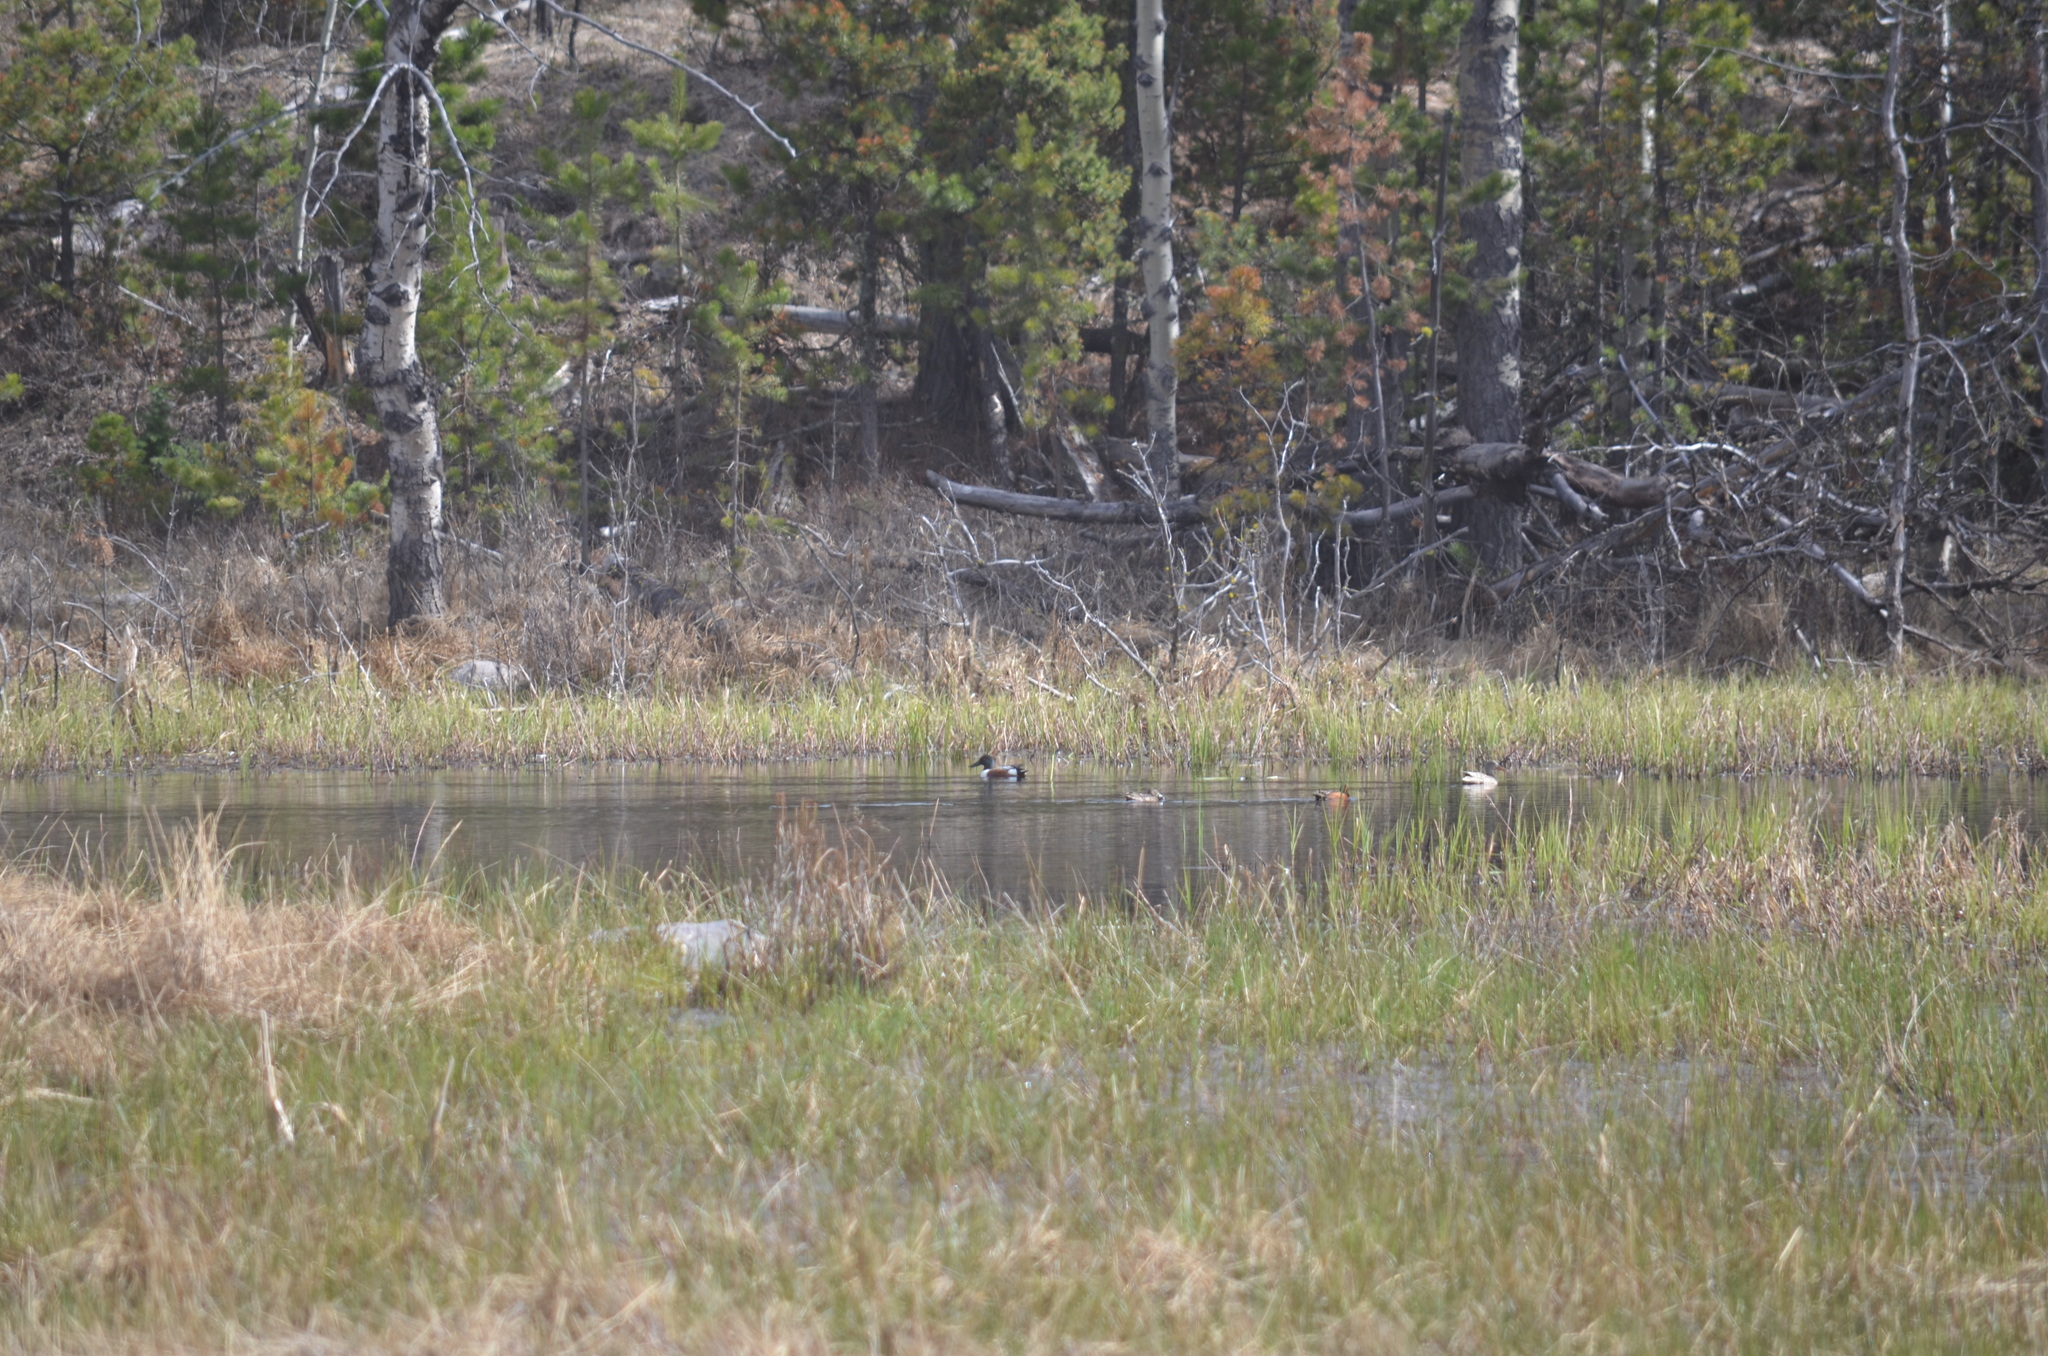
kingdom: Animalia
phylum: Chordata
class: Aves
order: Anseriformes
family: Anatidae
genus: Spatula
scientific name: Spatula cyanoptera
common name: Cinnamon teal
